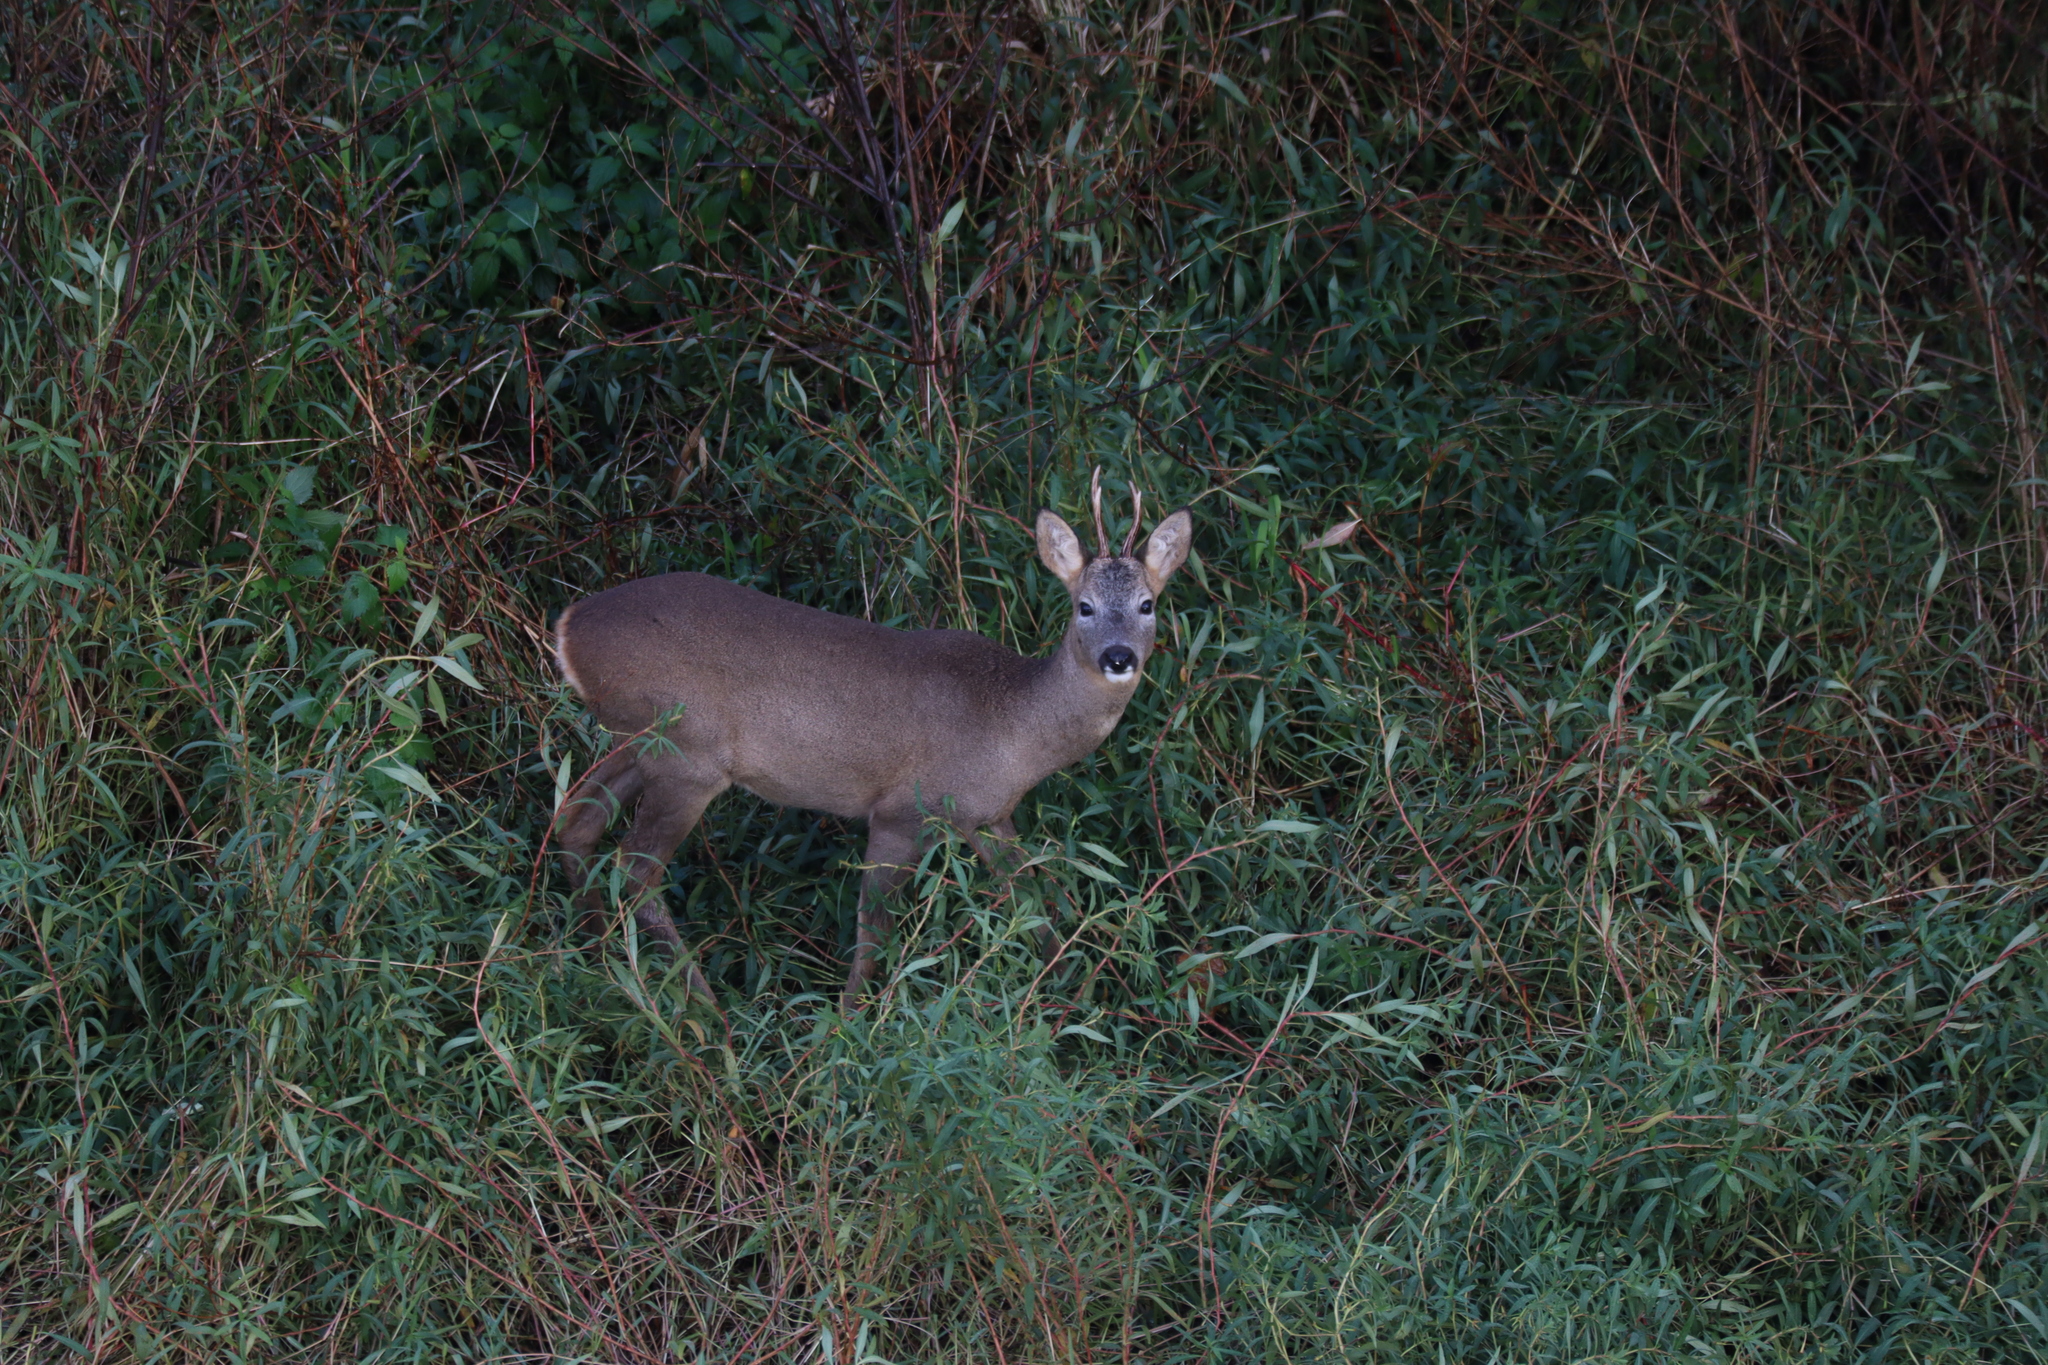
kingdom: Animalia
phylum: Chordata
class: Mammalia
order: Artiodactyla
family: Cervidae
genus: Capreolus
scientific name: Capreolus capreolus
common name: Western roe deer
